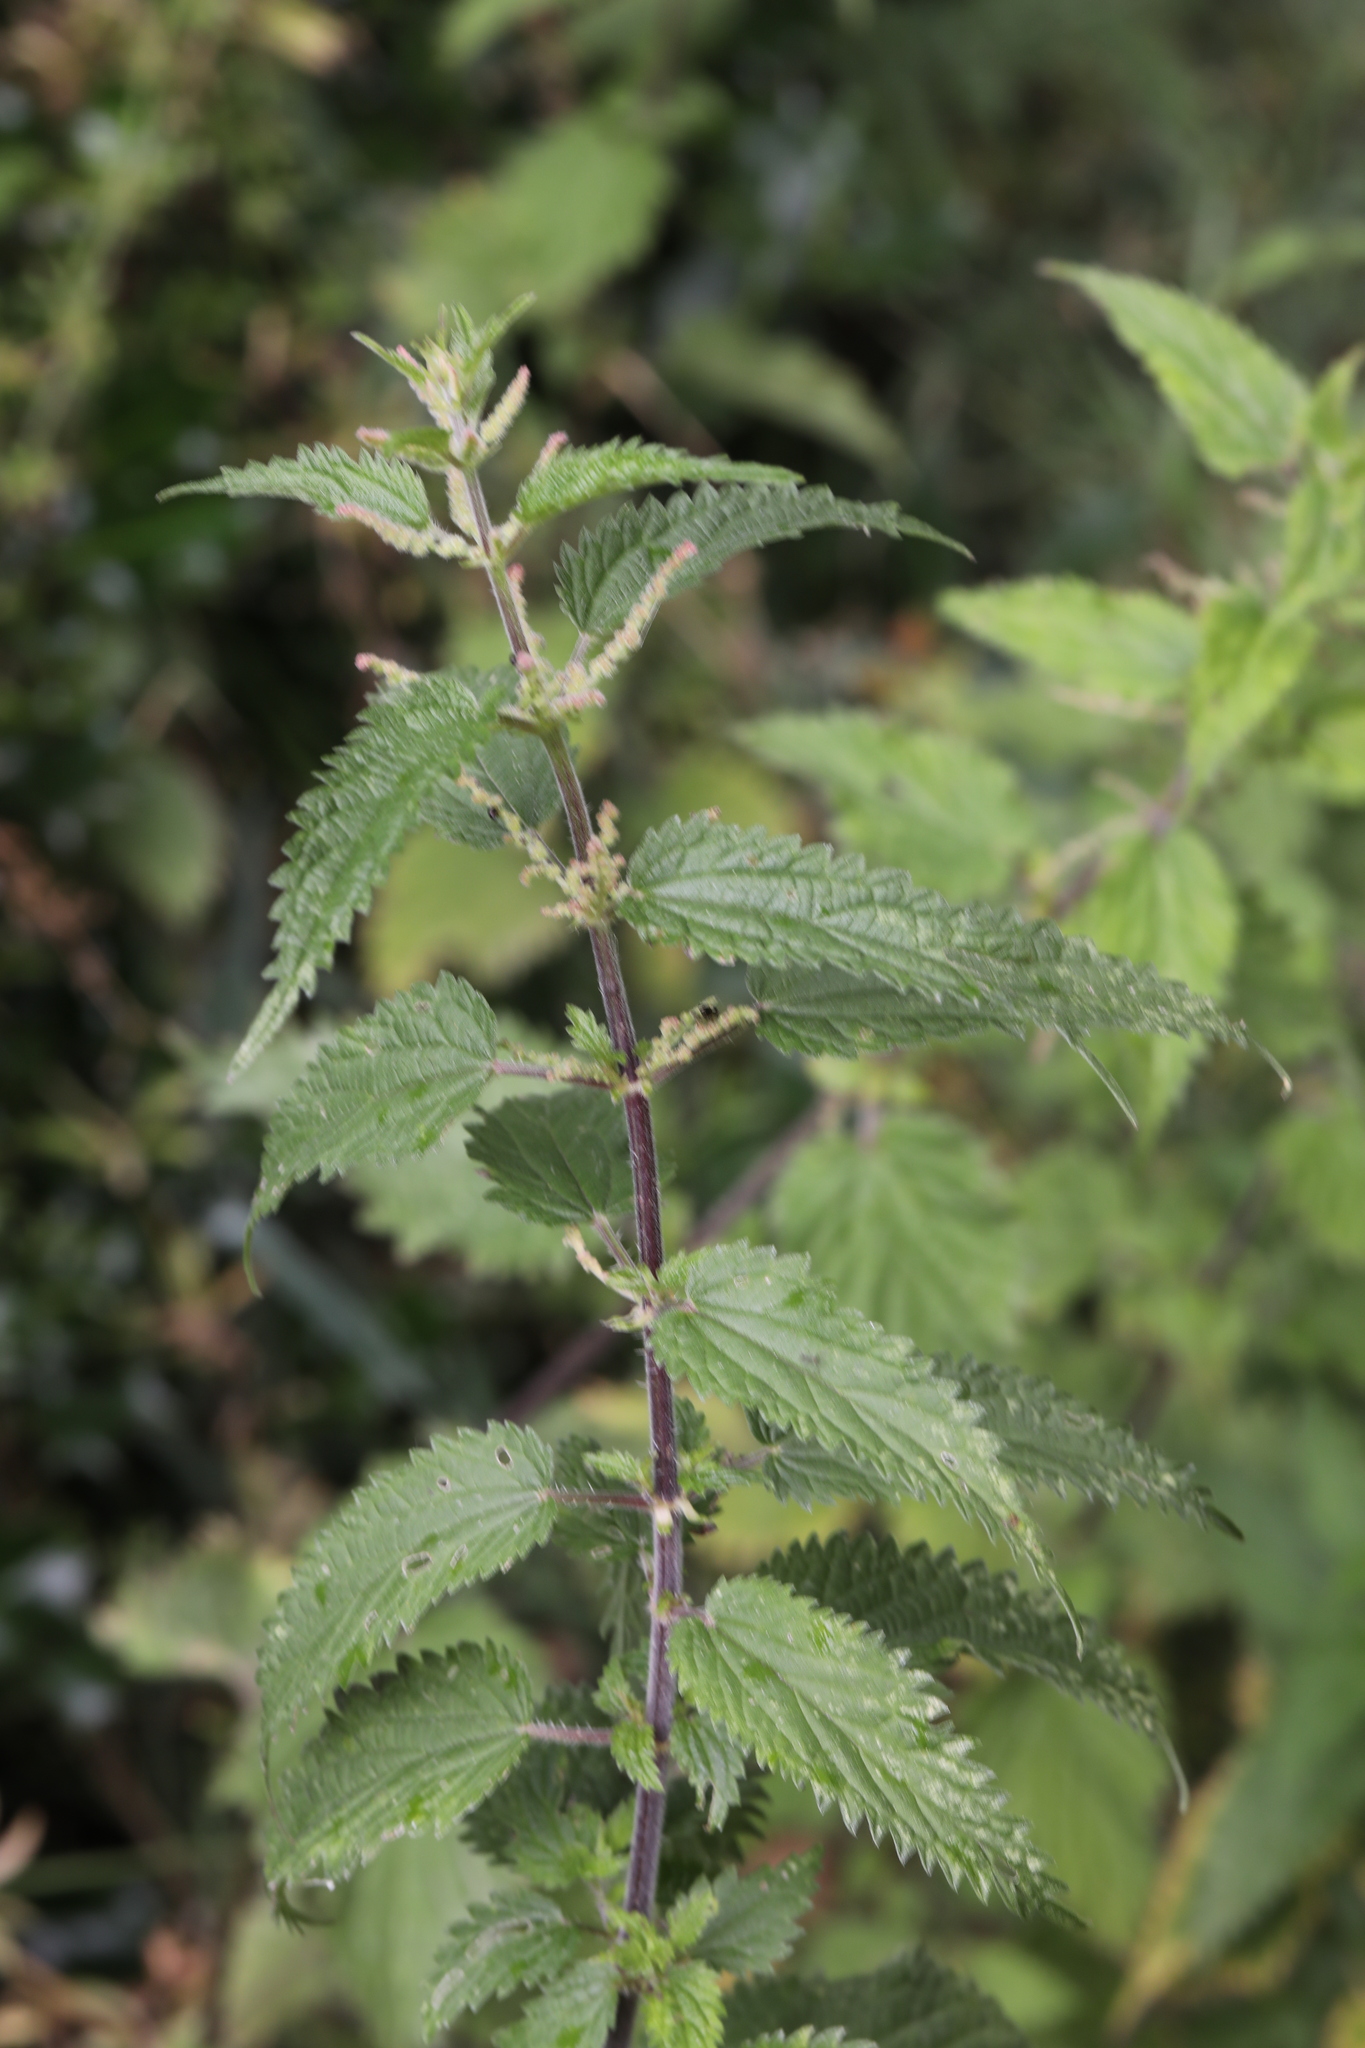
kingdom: Plantae
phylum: Tracheophyta
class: Magnoliopsida
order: Rosales
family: Urticaceae
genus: Urtica
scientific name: Urtica dioica
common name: Common nettle
